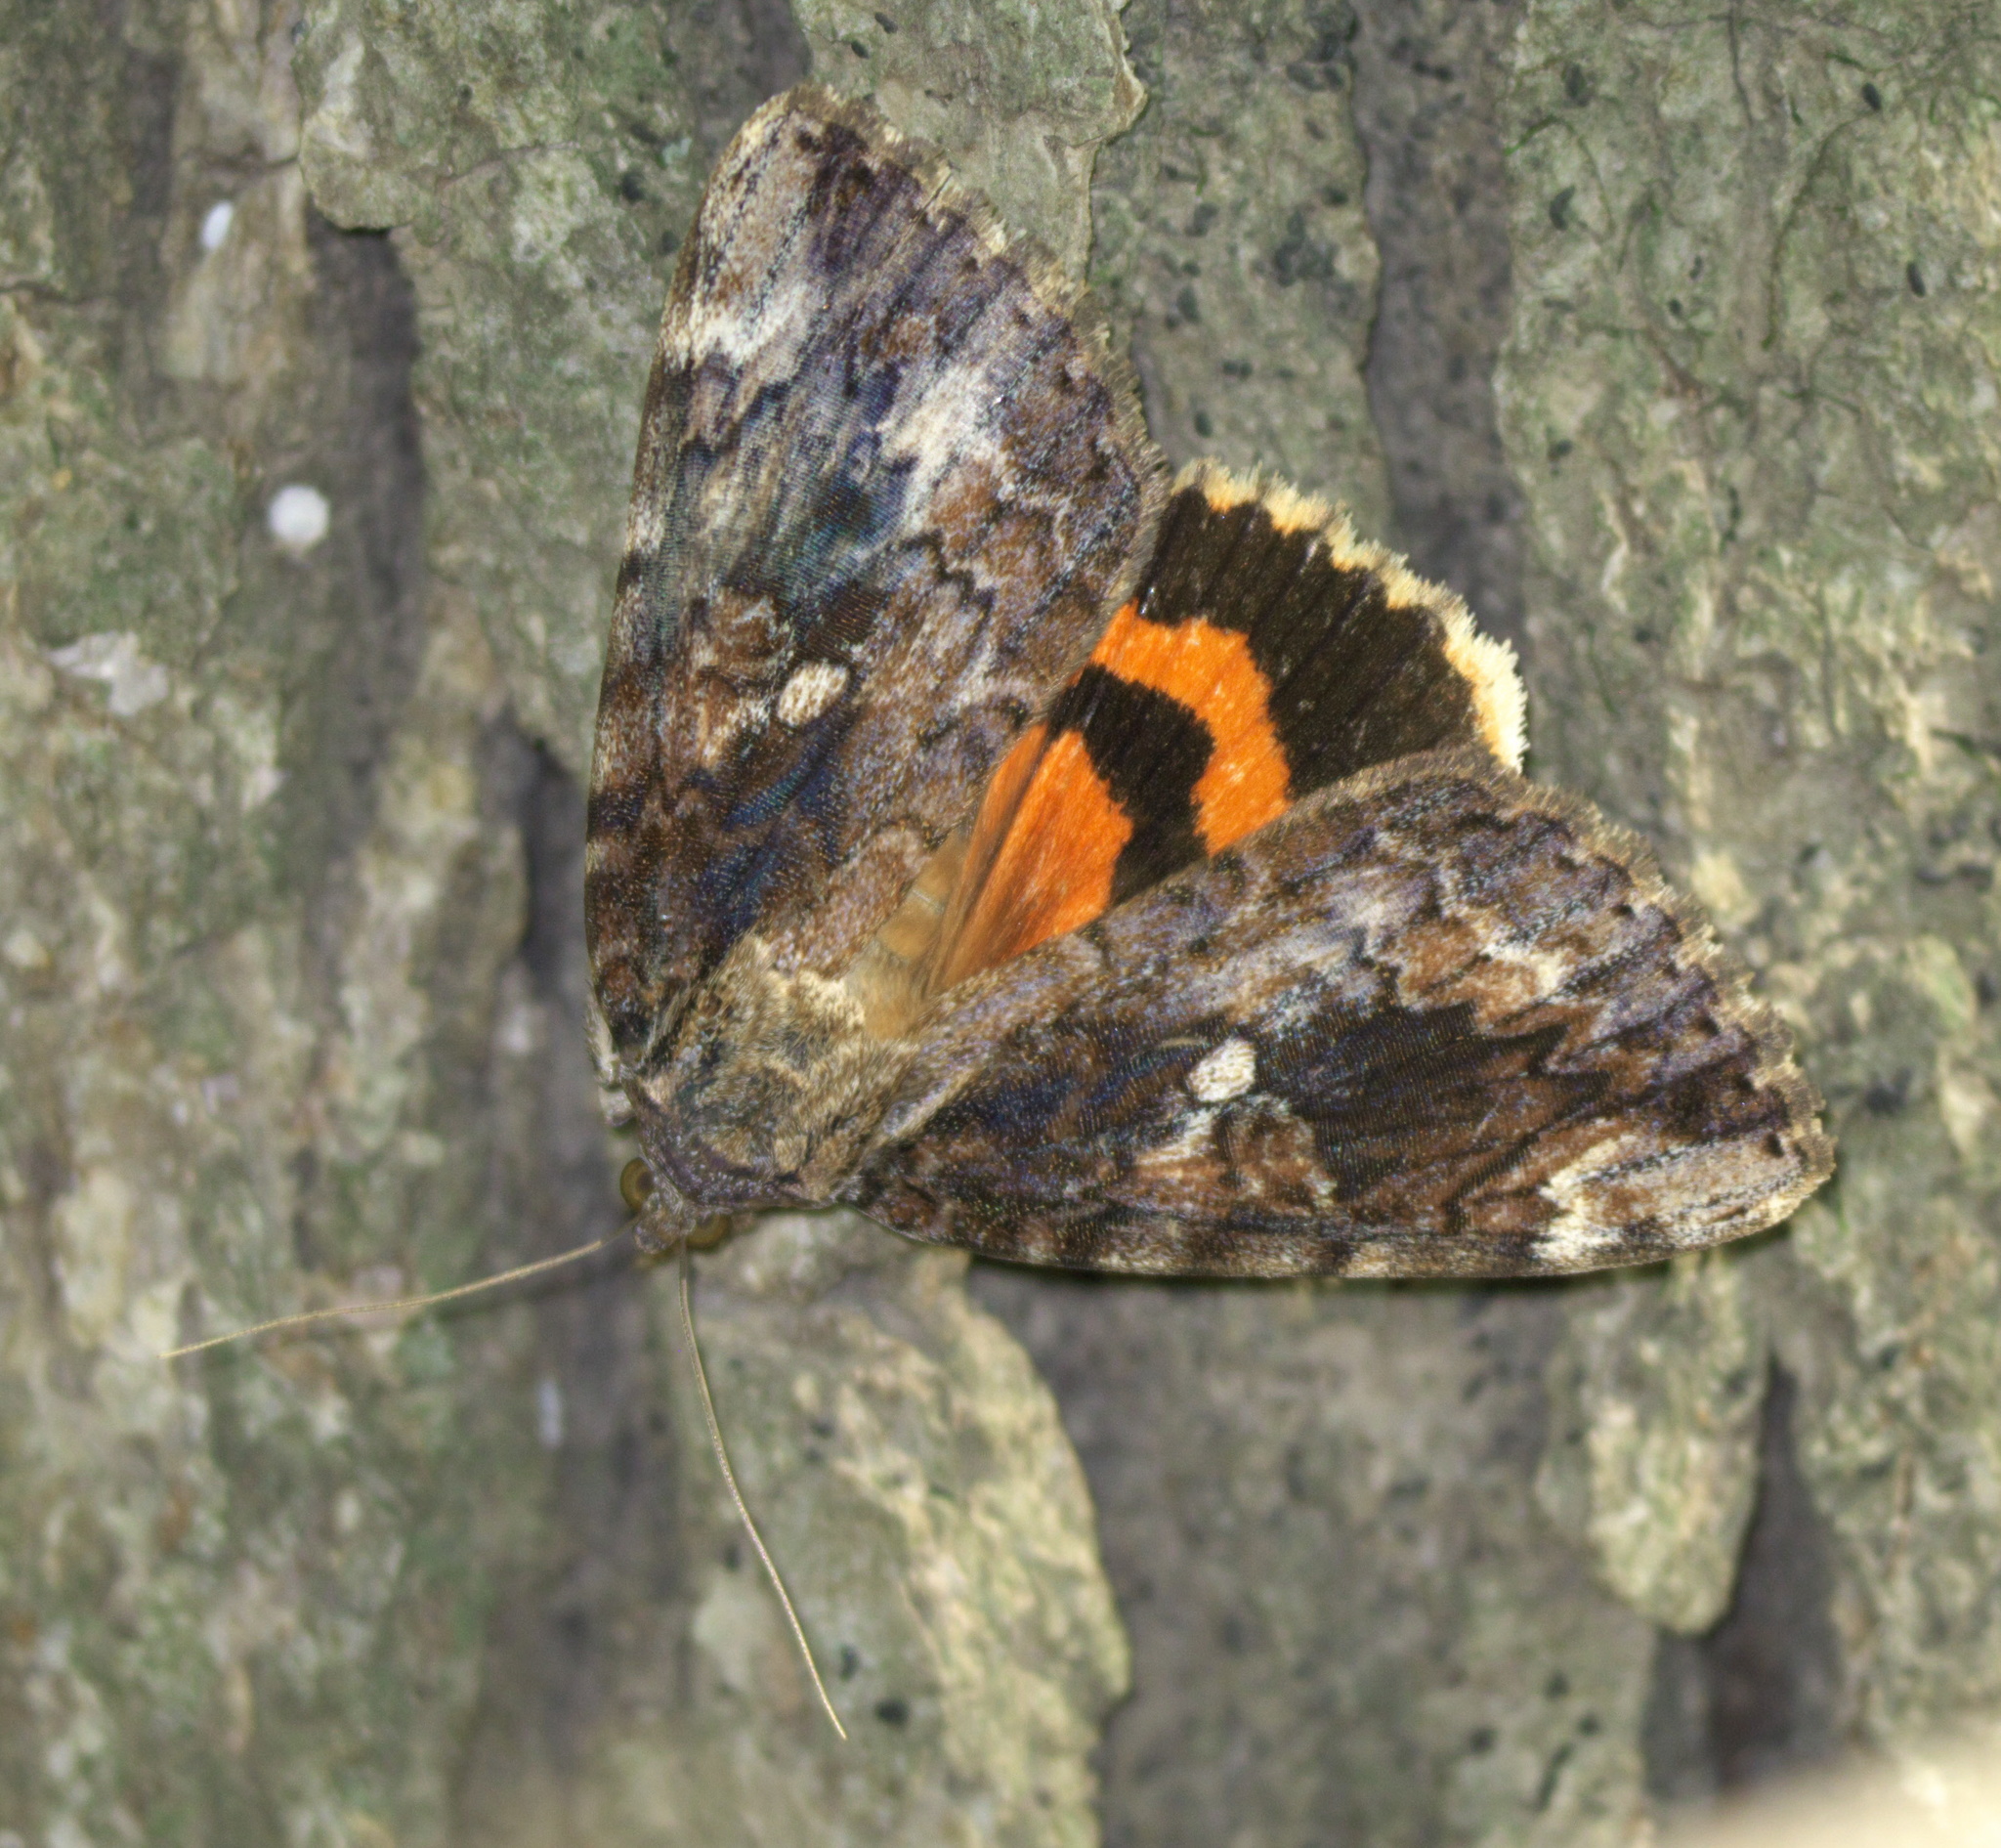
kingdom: Animalia
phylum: Arthropoda
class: Insecta
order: Lepidoptera
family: Erebidae
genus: Catocala
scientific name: Catocala innubens
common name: Betrothed underwing
